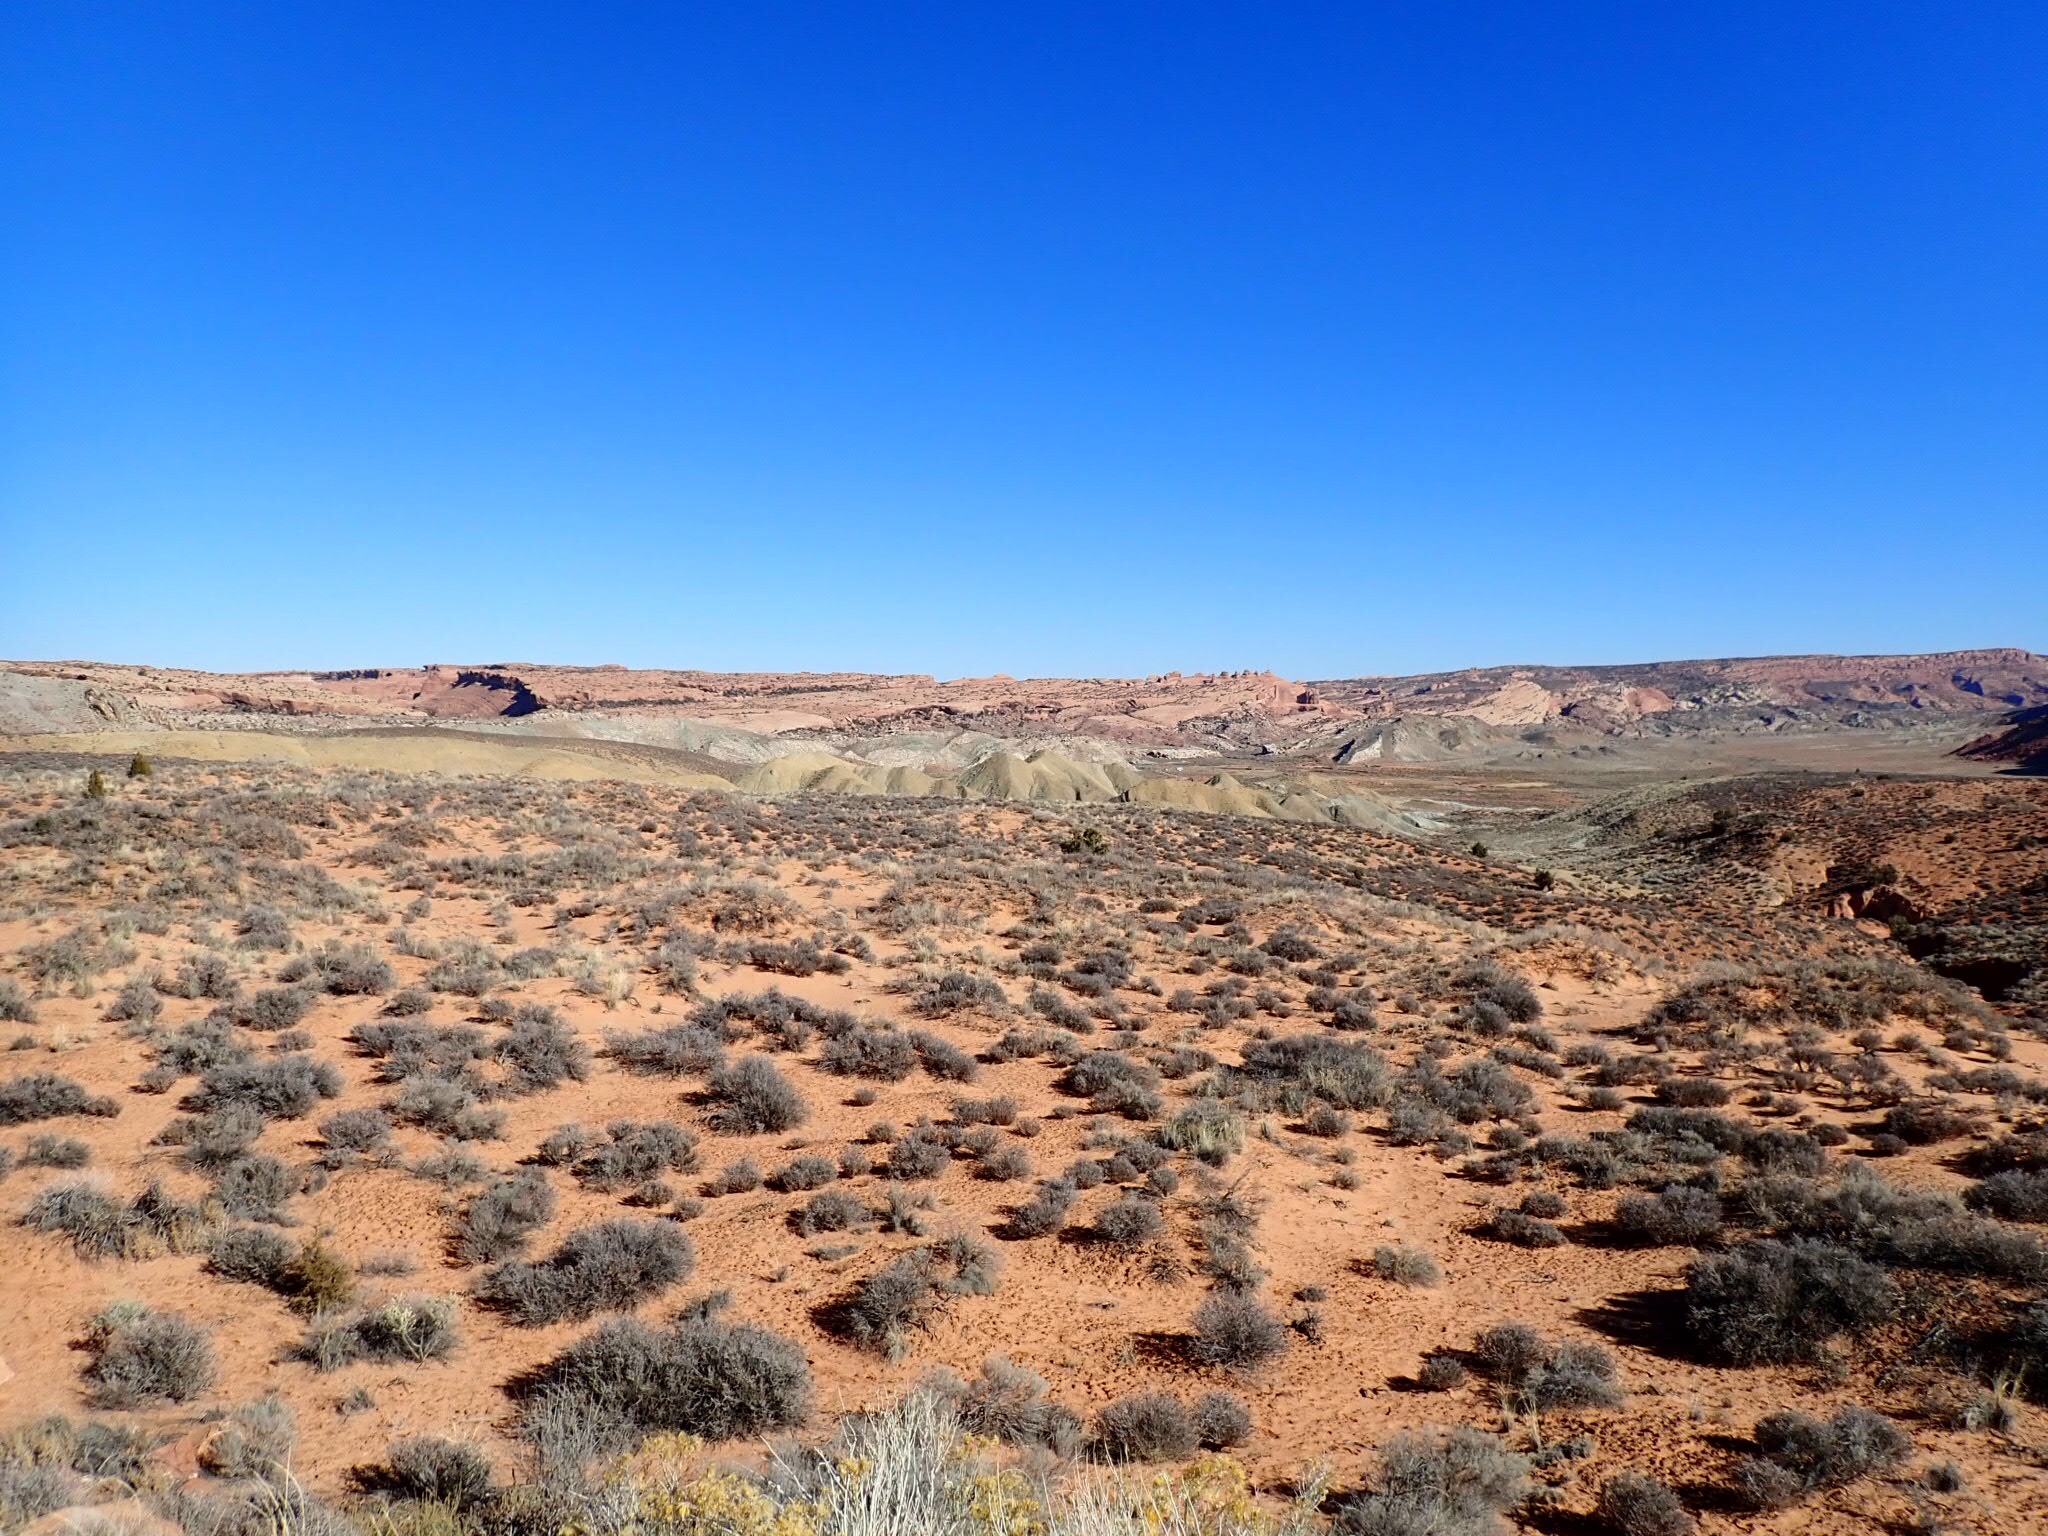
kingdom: Plantae
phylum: Tracheophyta
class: Magnoliopsida
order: Rosales
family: Rosaceae
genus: Coleogyne
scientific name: Coleogyne ramosissima
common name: Blackbrush
